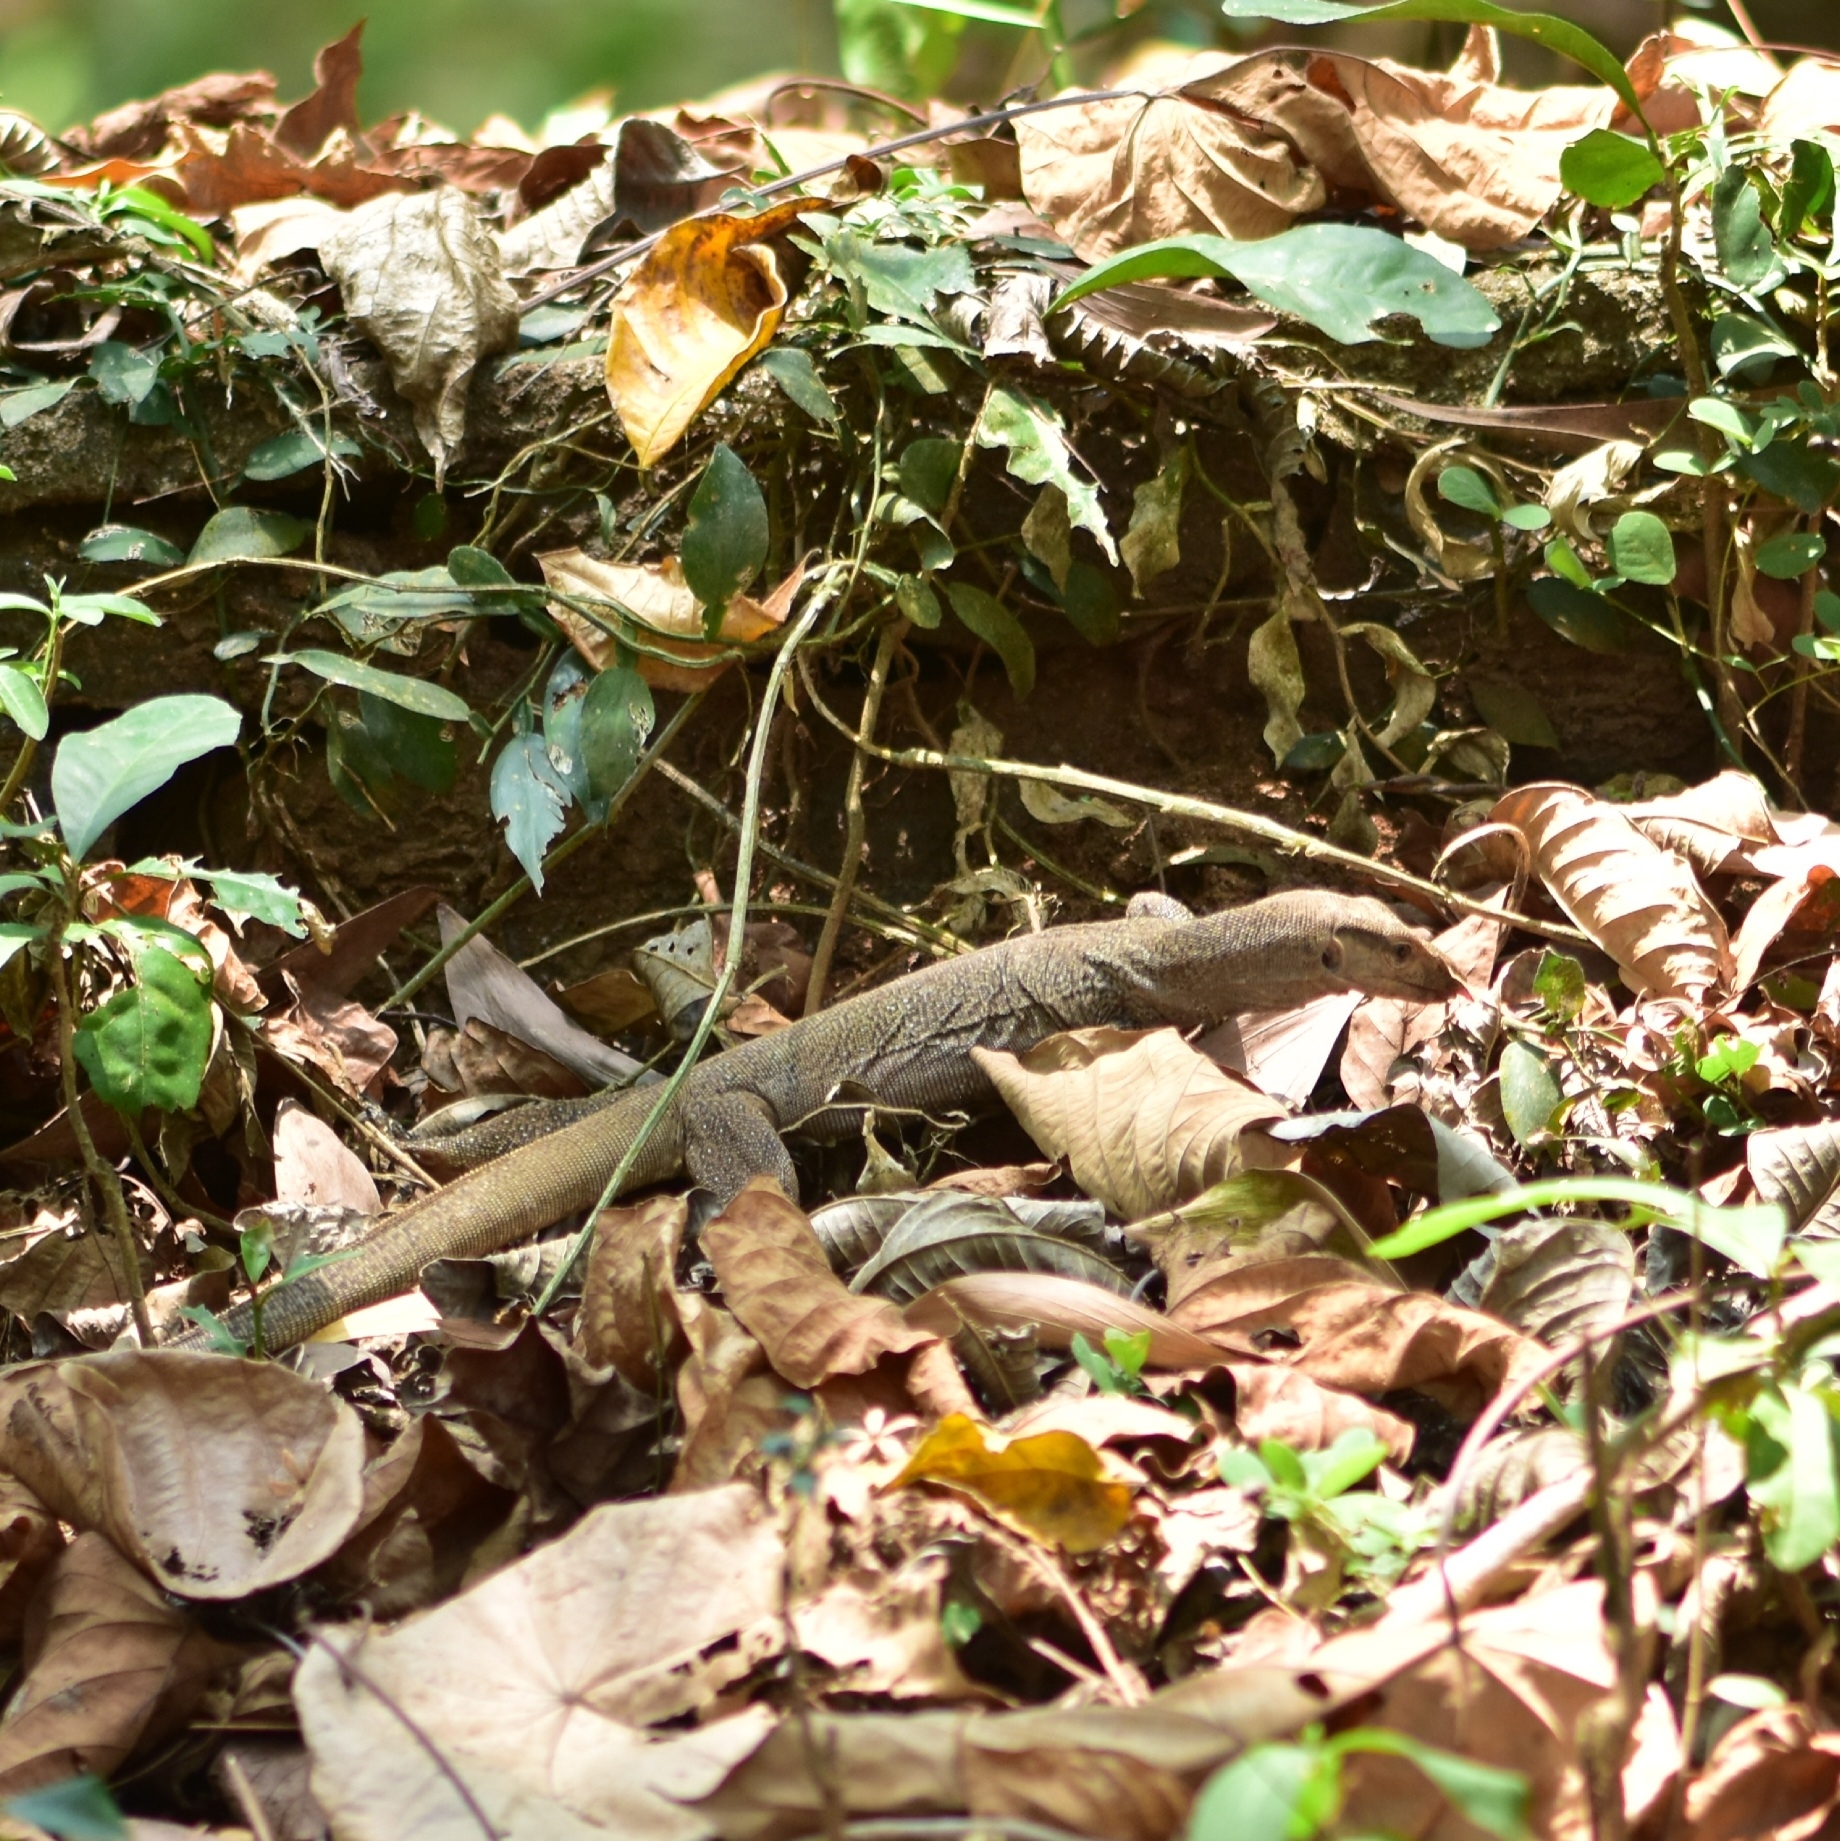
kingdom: Animalia
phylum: Chordata
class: Squamata
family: Varanidae
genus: Varanus
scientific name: Varanus bengalensis
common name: Bengal monitor
